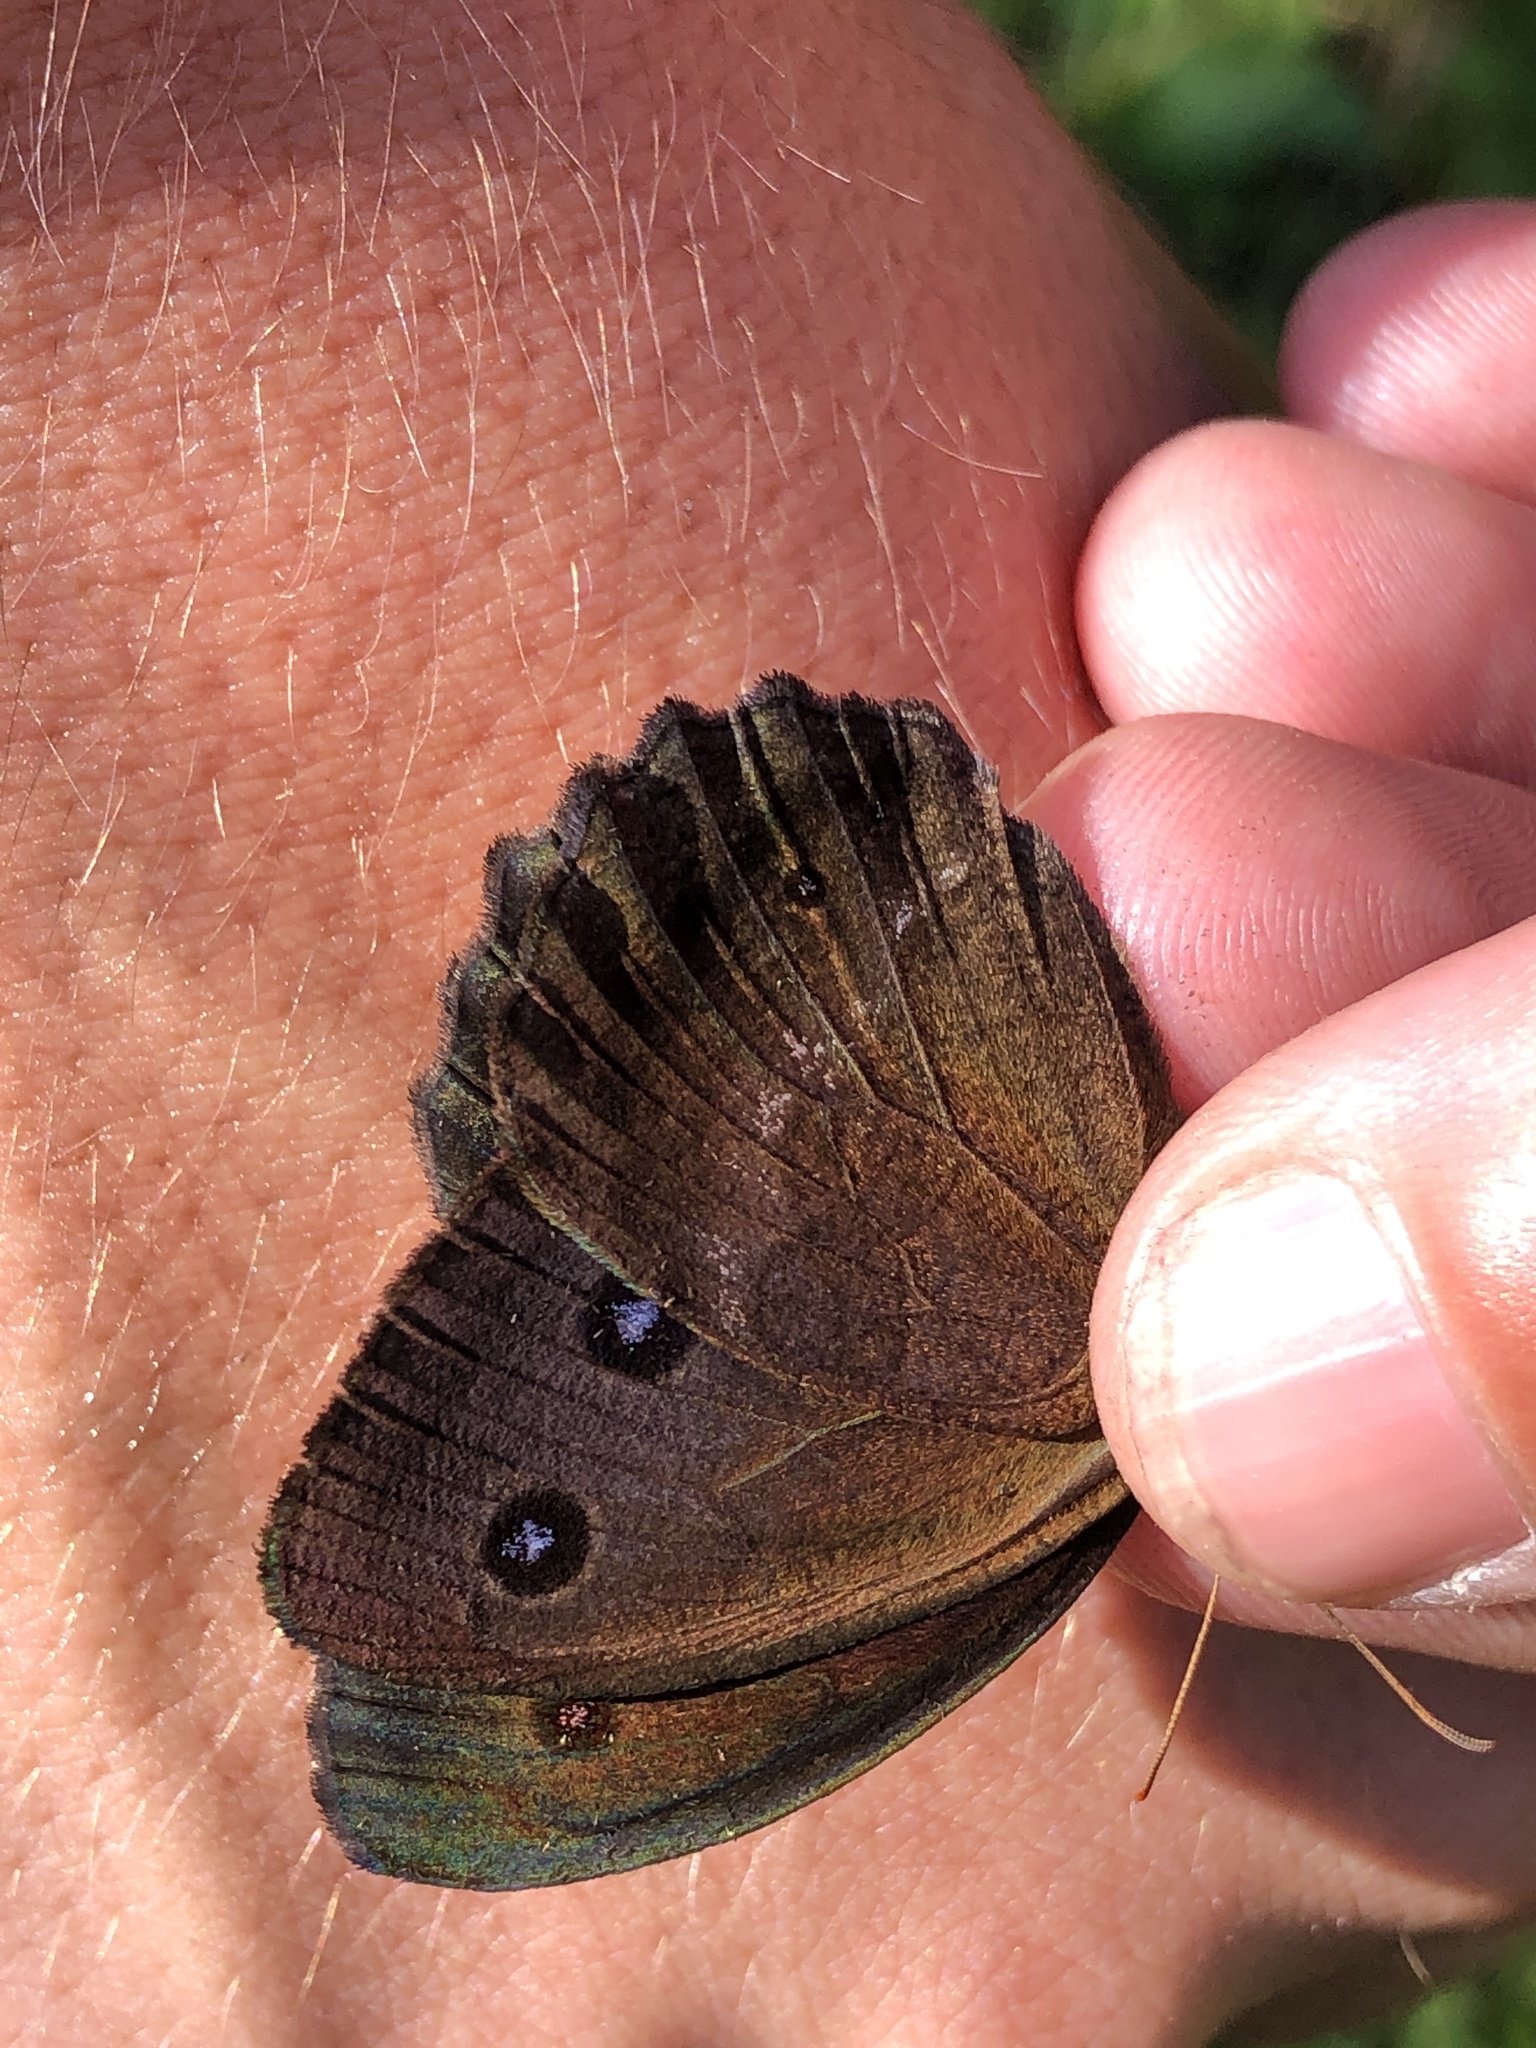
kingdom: Animalia
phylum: Arthropoda
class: Insecta
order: Lepidoptera
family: Nymphalidae
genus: Minois
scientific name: Minois dryas
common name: Dryad
